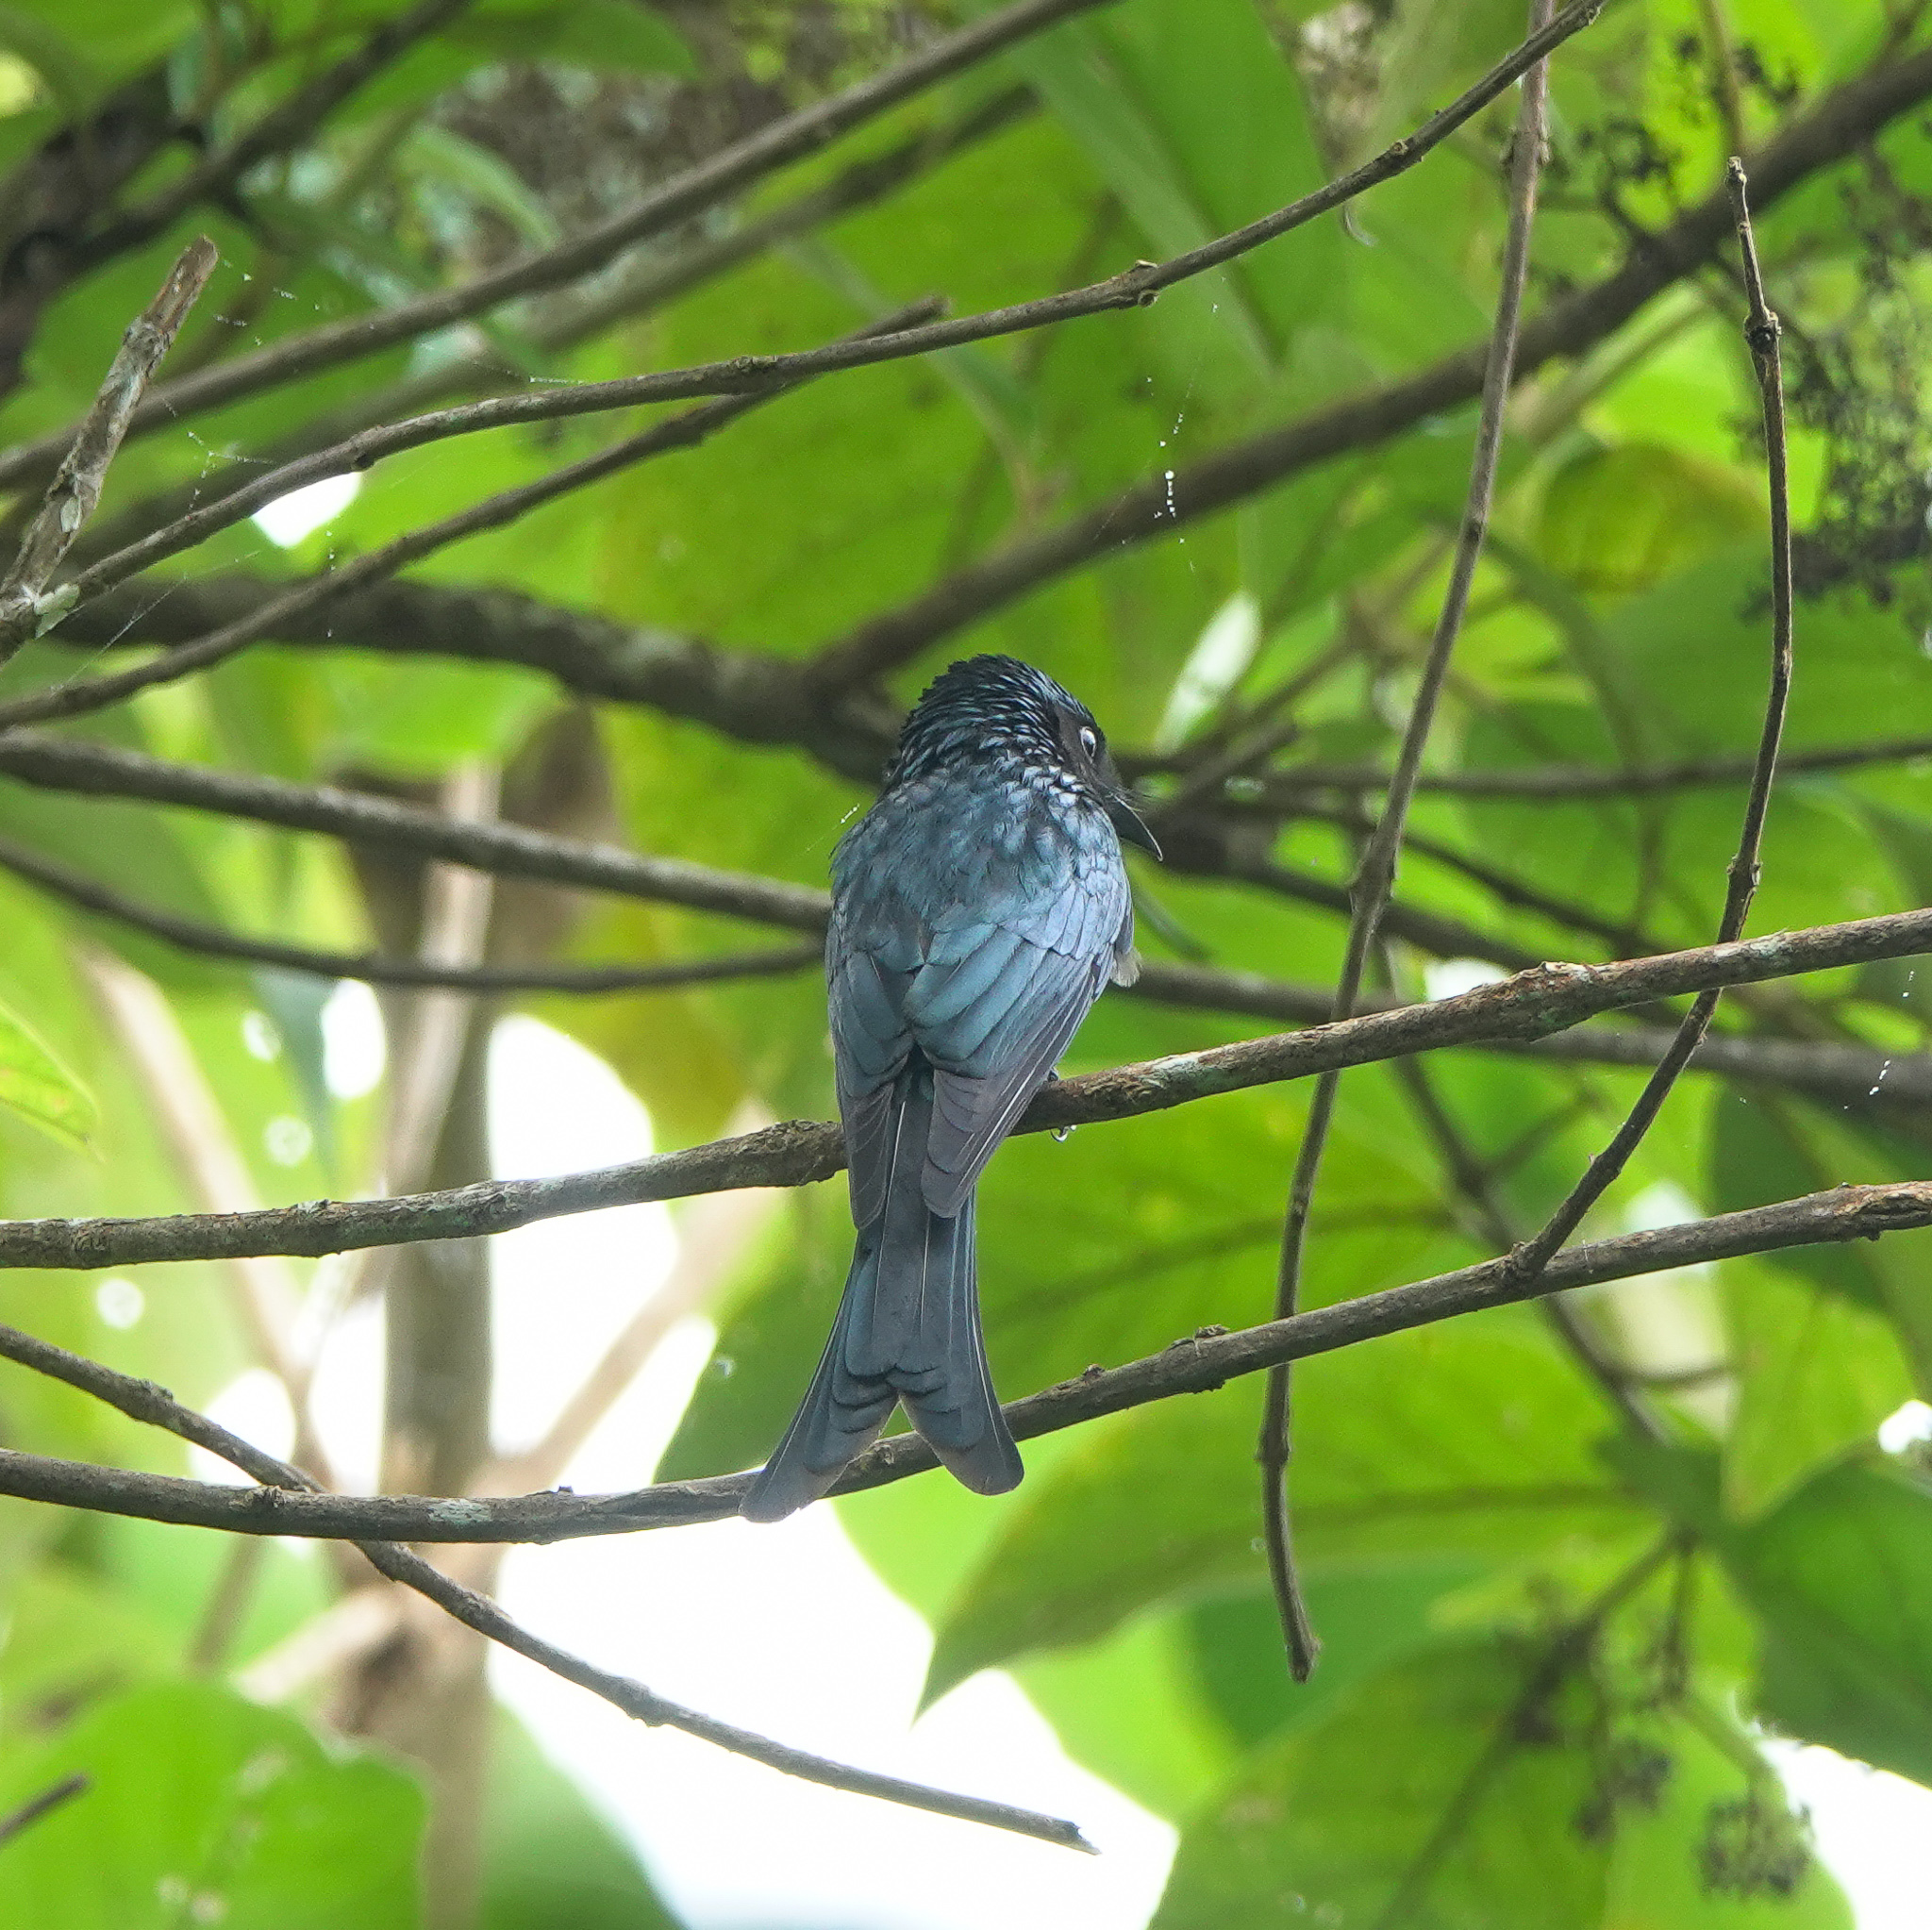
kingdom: Animalia
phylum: Chordata
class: Aves
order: Passeriformes
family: Dicruridae
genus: Dicrurus
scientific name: Dicrurus aeneus
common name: Bronzed drongo
